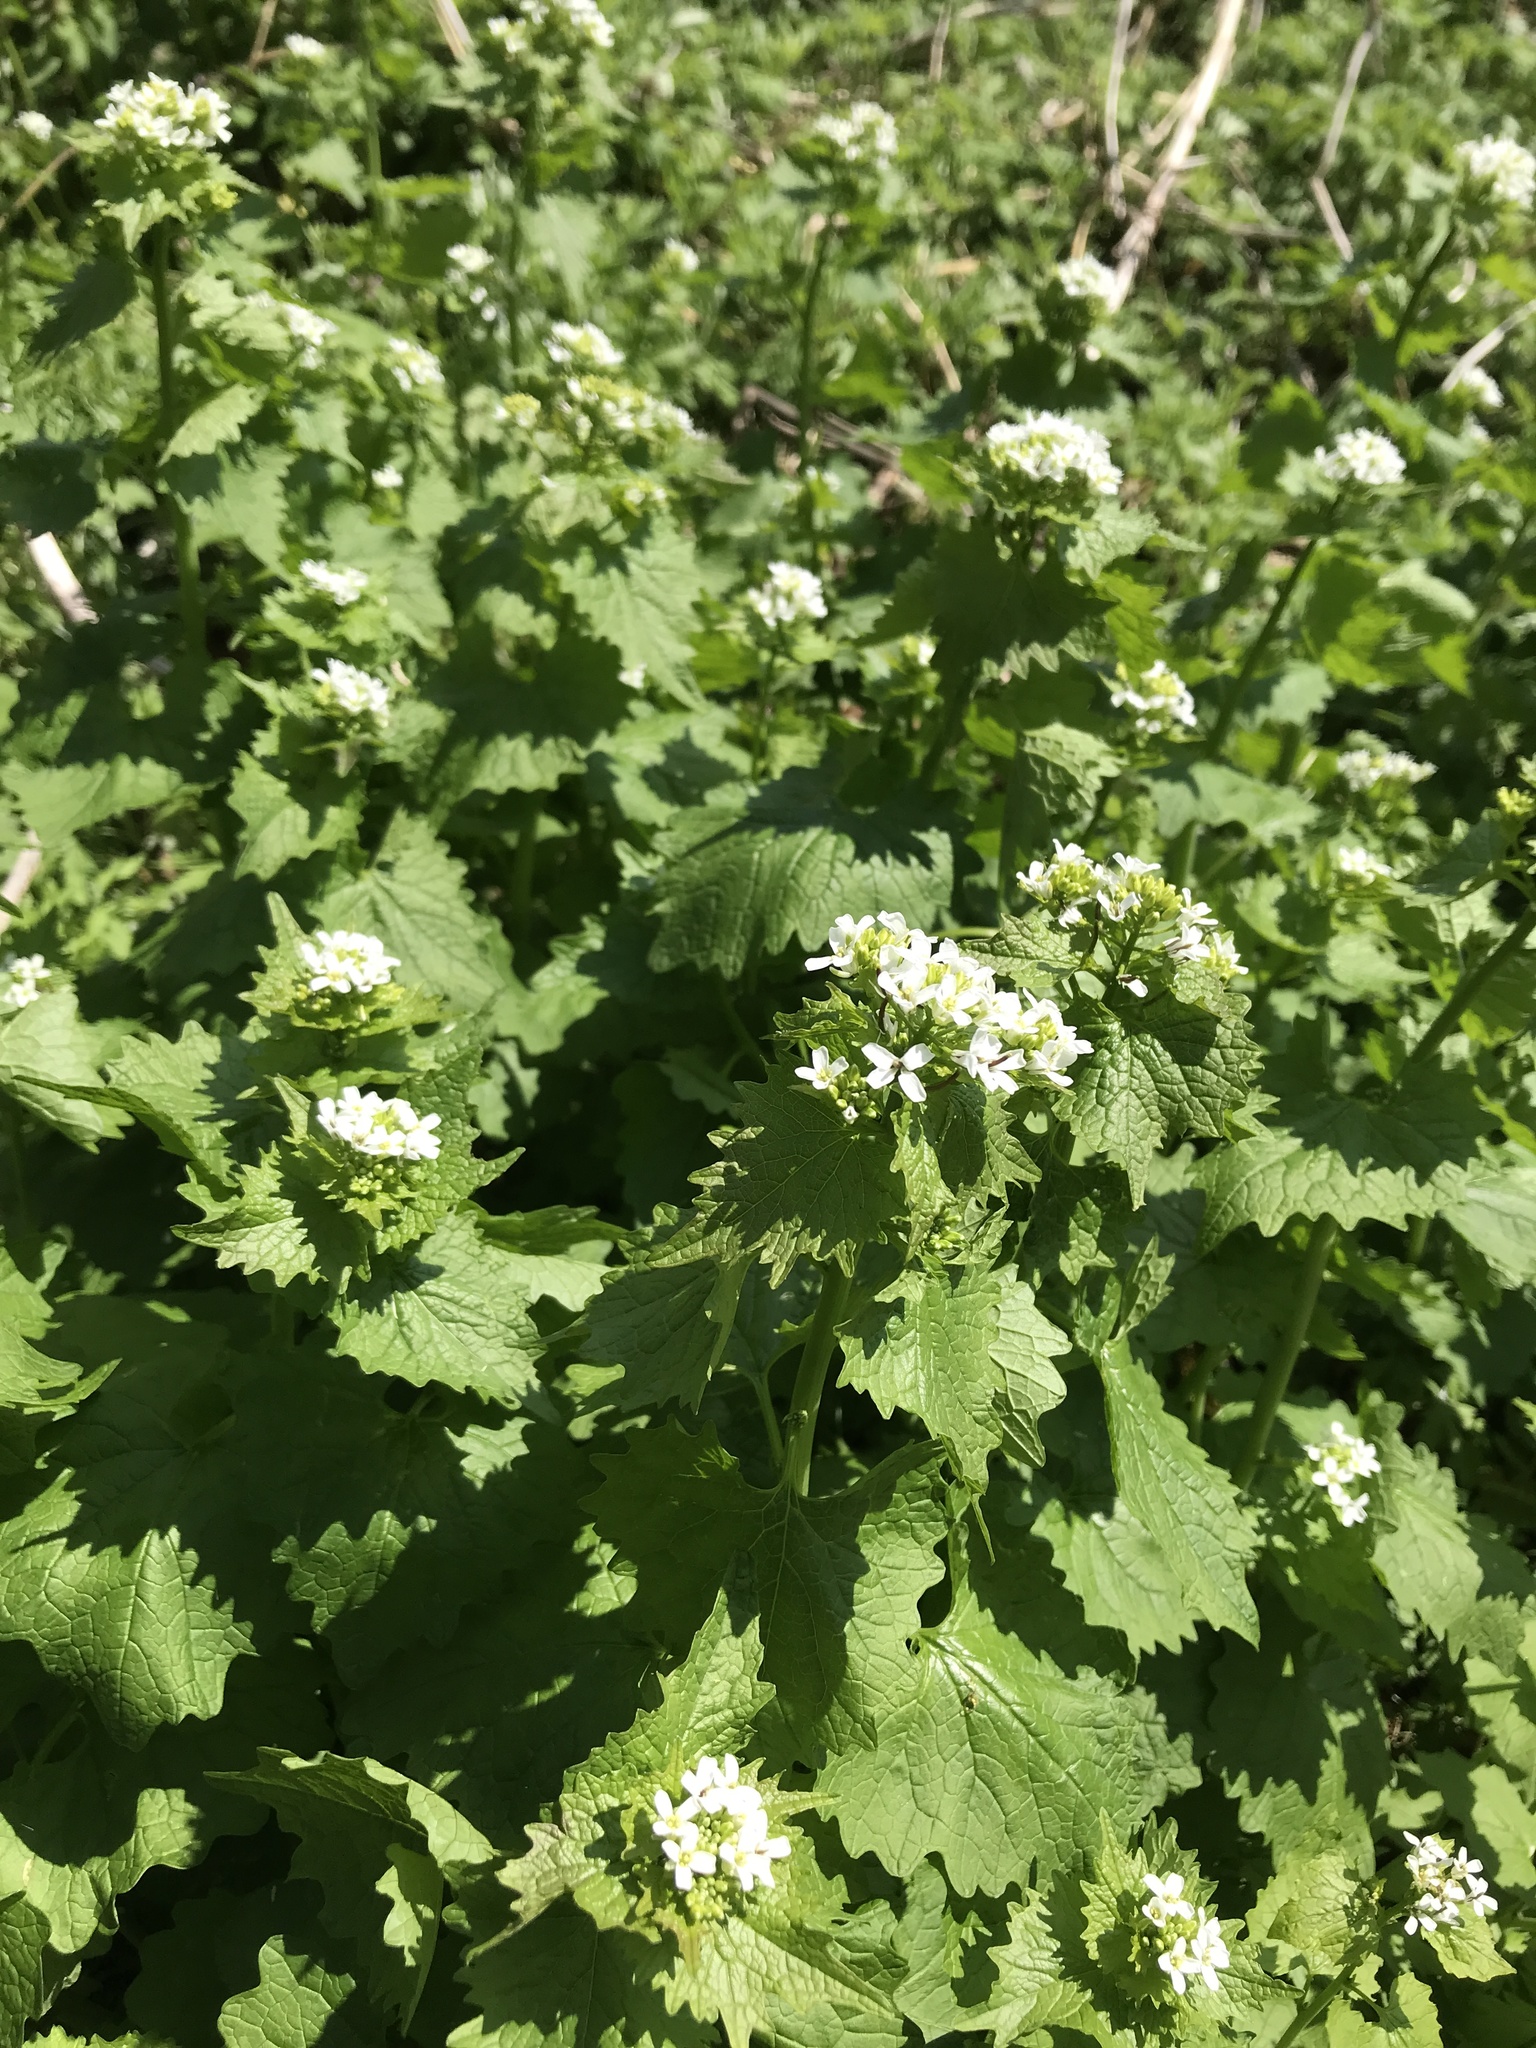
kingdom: Plantae
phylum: Tracheophyta
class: Magnoliopsida
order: Brassicales
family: Brassicaceae
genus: Alliaria
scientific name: Alliaria petiolata
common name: Garlic mustard
